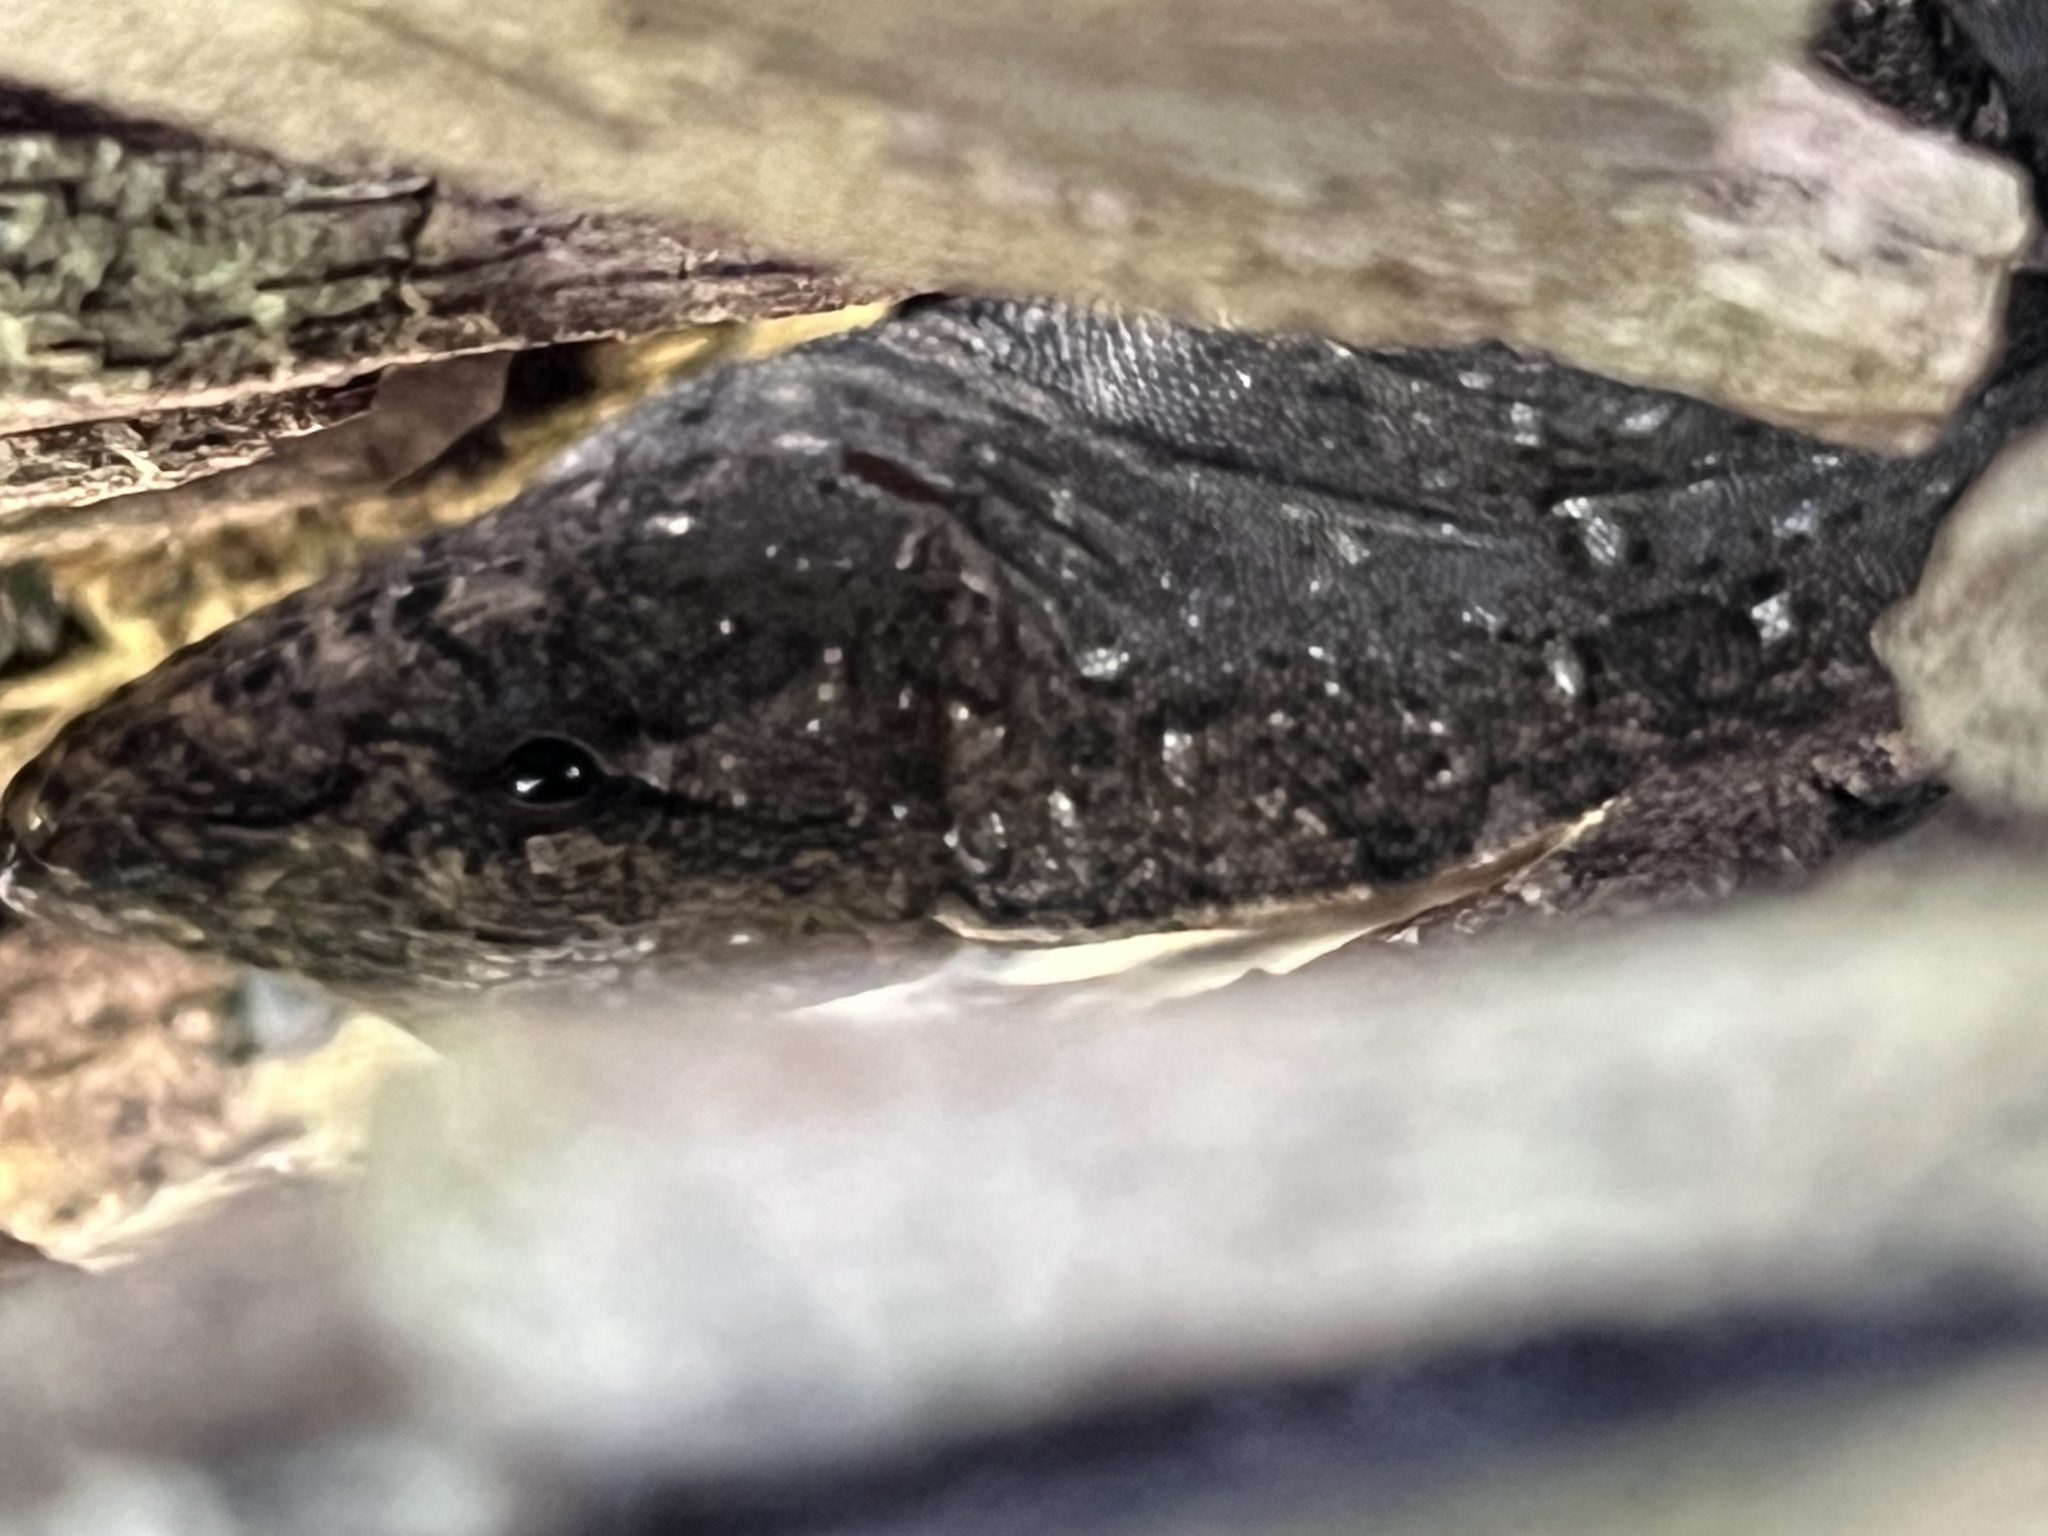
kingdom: Animalia
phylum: Chordata
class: Squamata
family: Dactyloidae
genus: Anolis
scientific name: Anolis sagrei
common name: Brown anole
